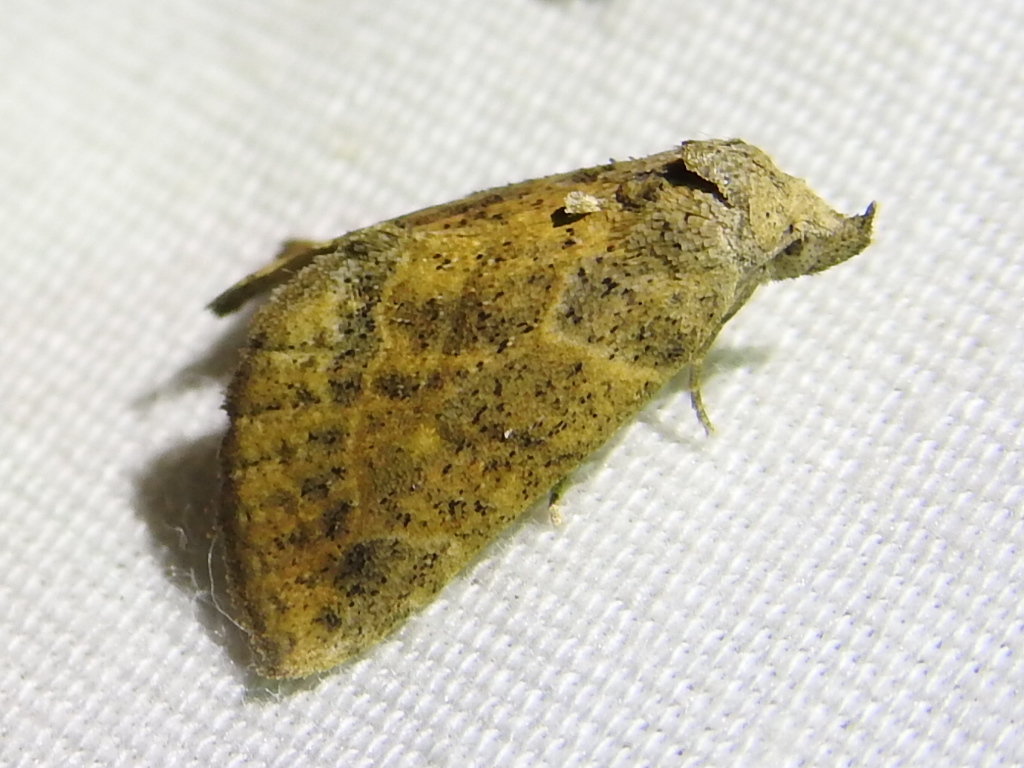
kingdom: Animalia
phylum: Arthropoda
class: Insecta
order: Lepidoptera
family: Erebidae
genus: Isogona
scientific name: Isogona snowi
